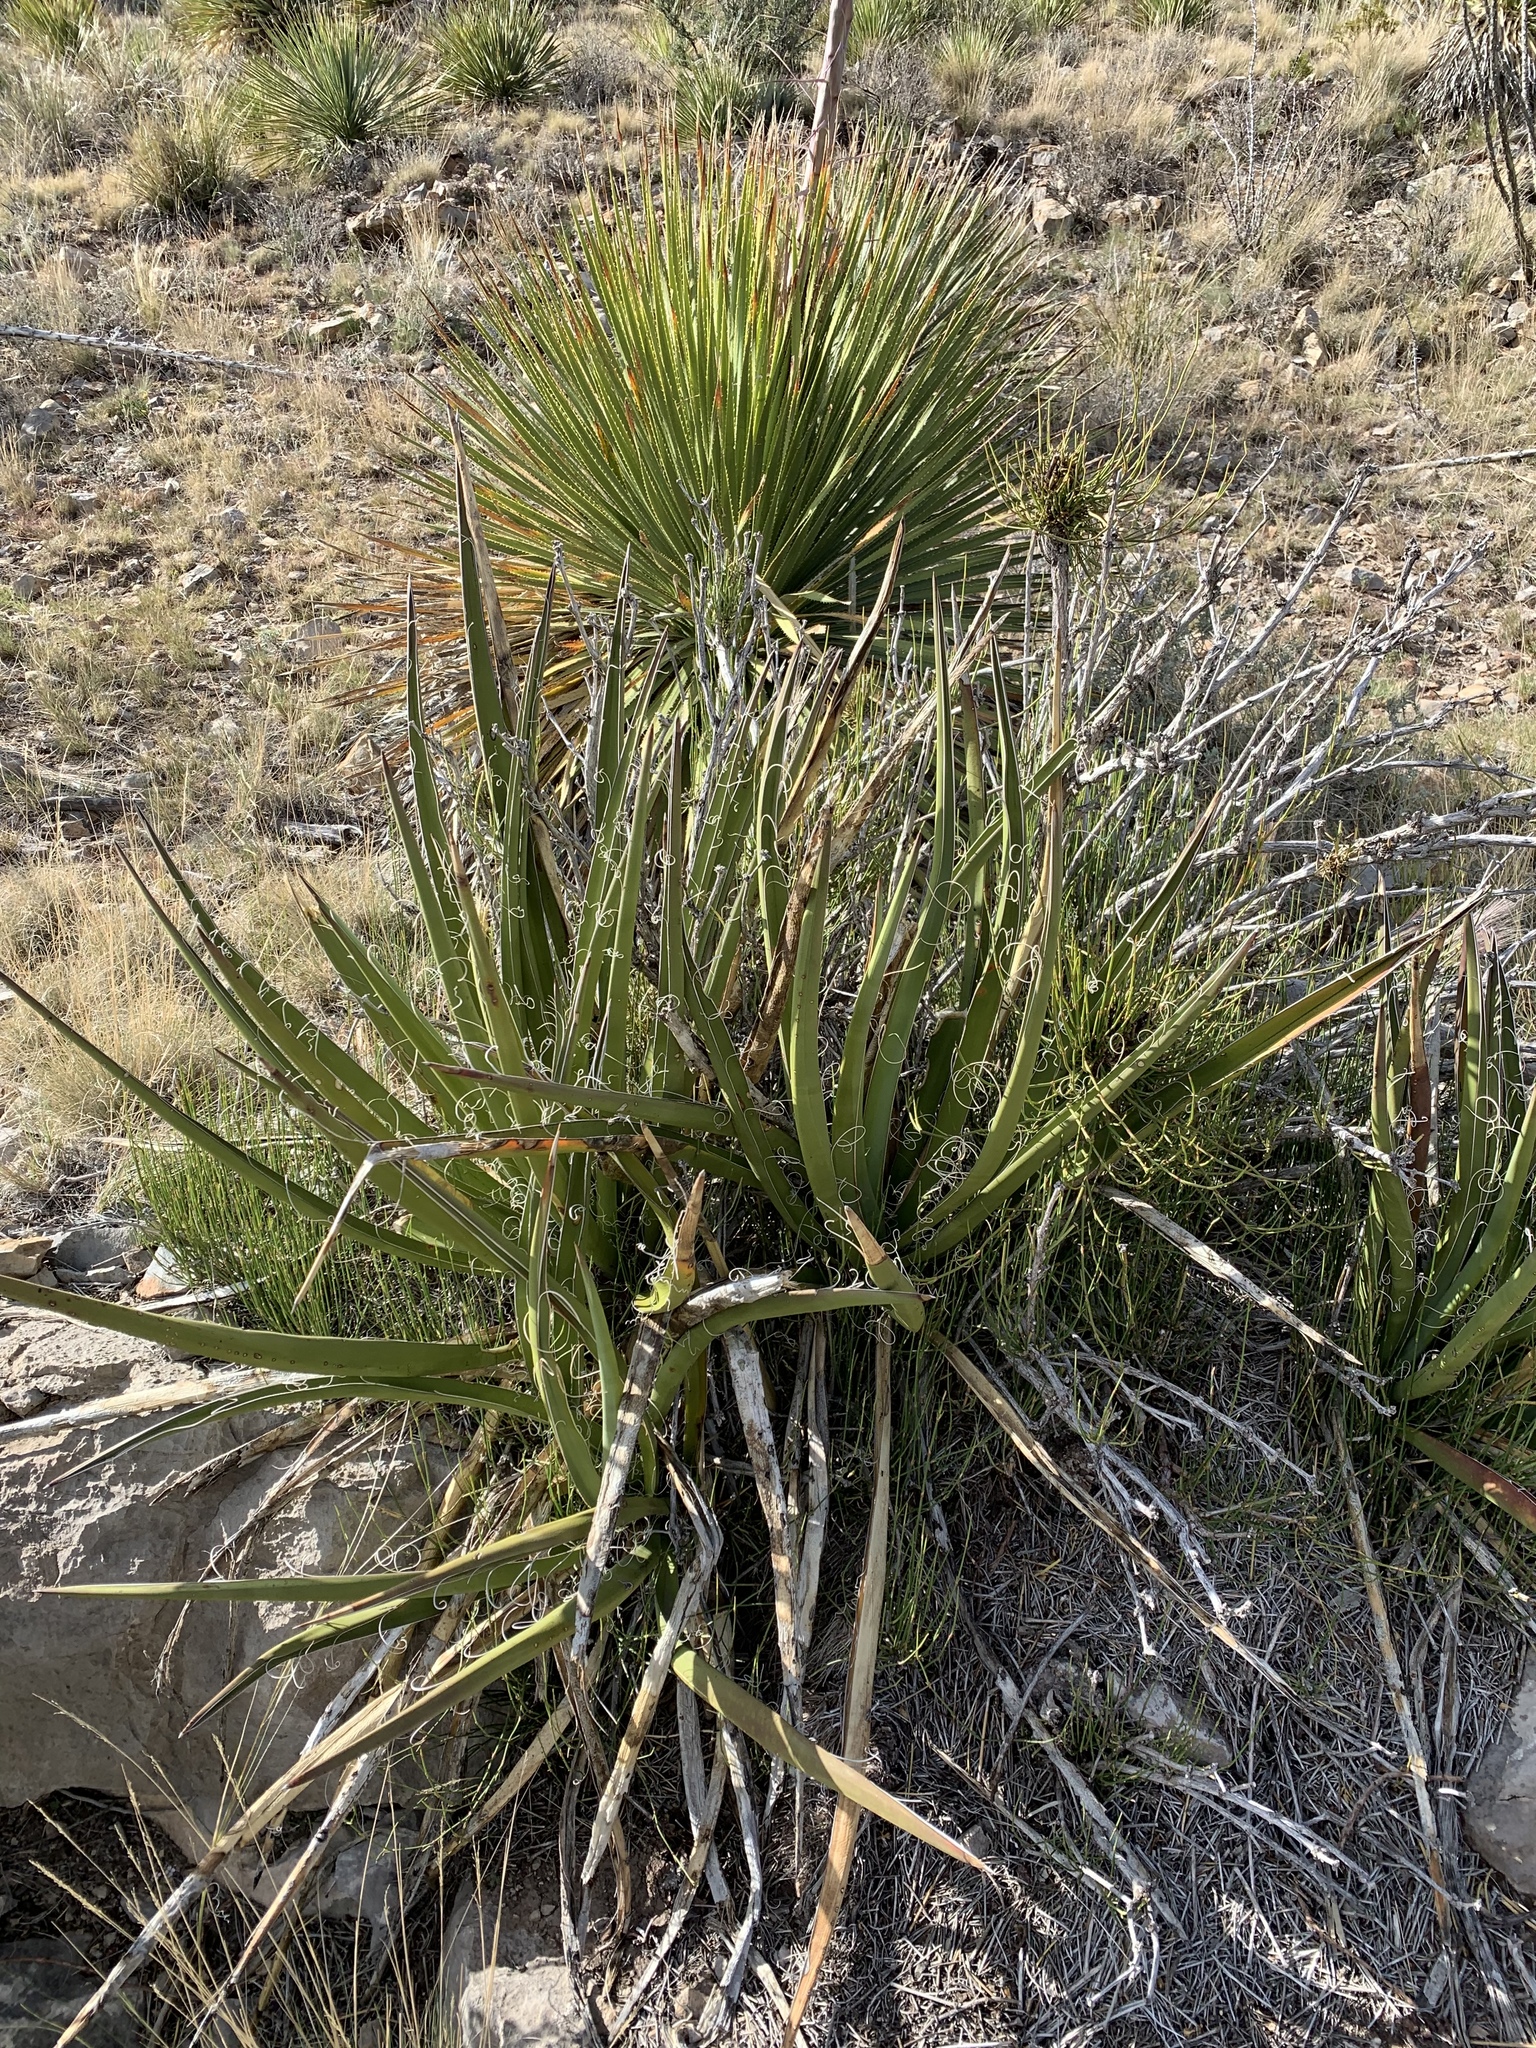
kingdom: Plantae
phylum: Tracheophyta
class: Liliopsida
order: Asparagales
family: Asparagaceae
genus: Yucca
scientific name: Yucca baccata
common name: Banana yucca
